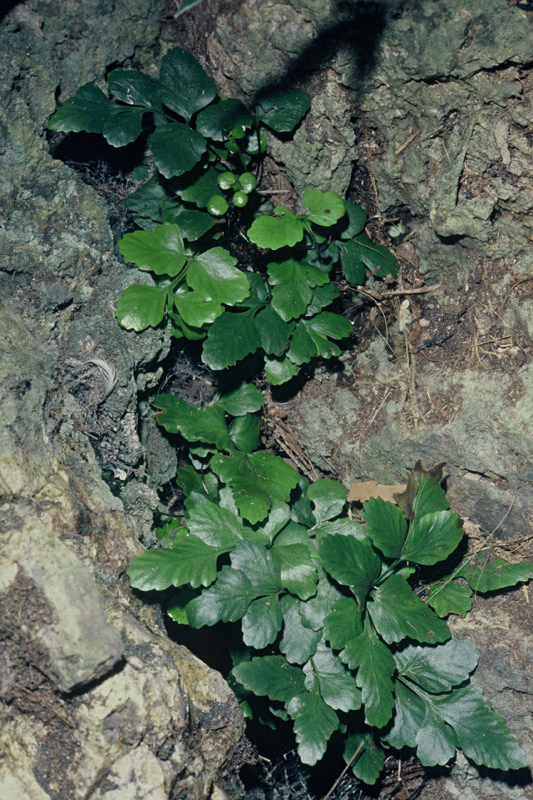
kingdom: Plantae
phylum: Tracheophyta
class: Polypodiopsida
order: Polypodiales
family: Aspleniaceae
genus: Asplenium
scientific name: Asplenium pauperequitum
